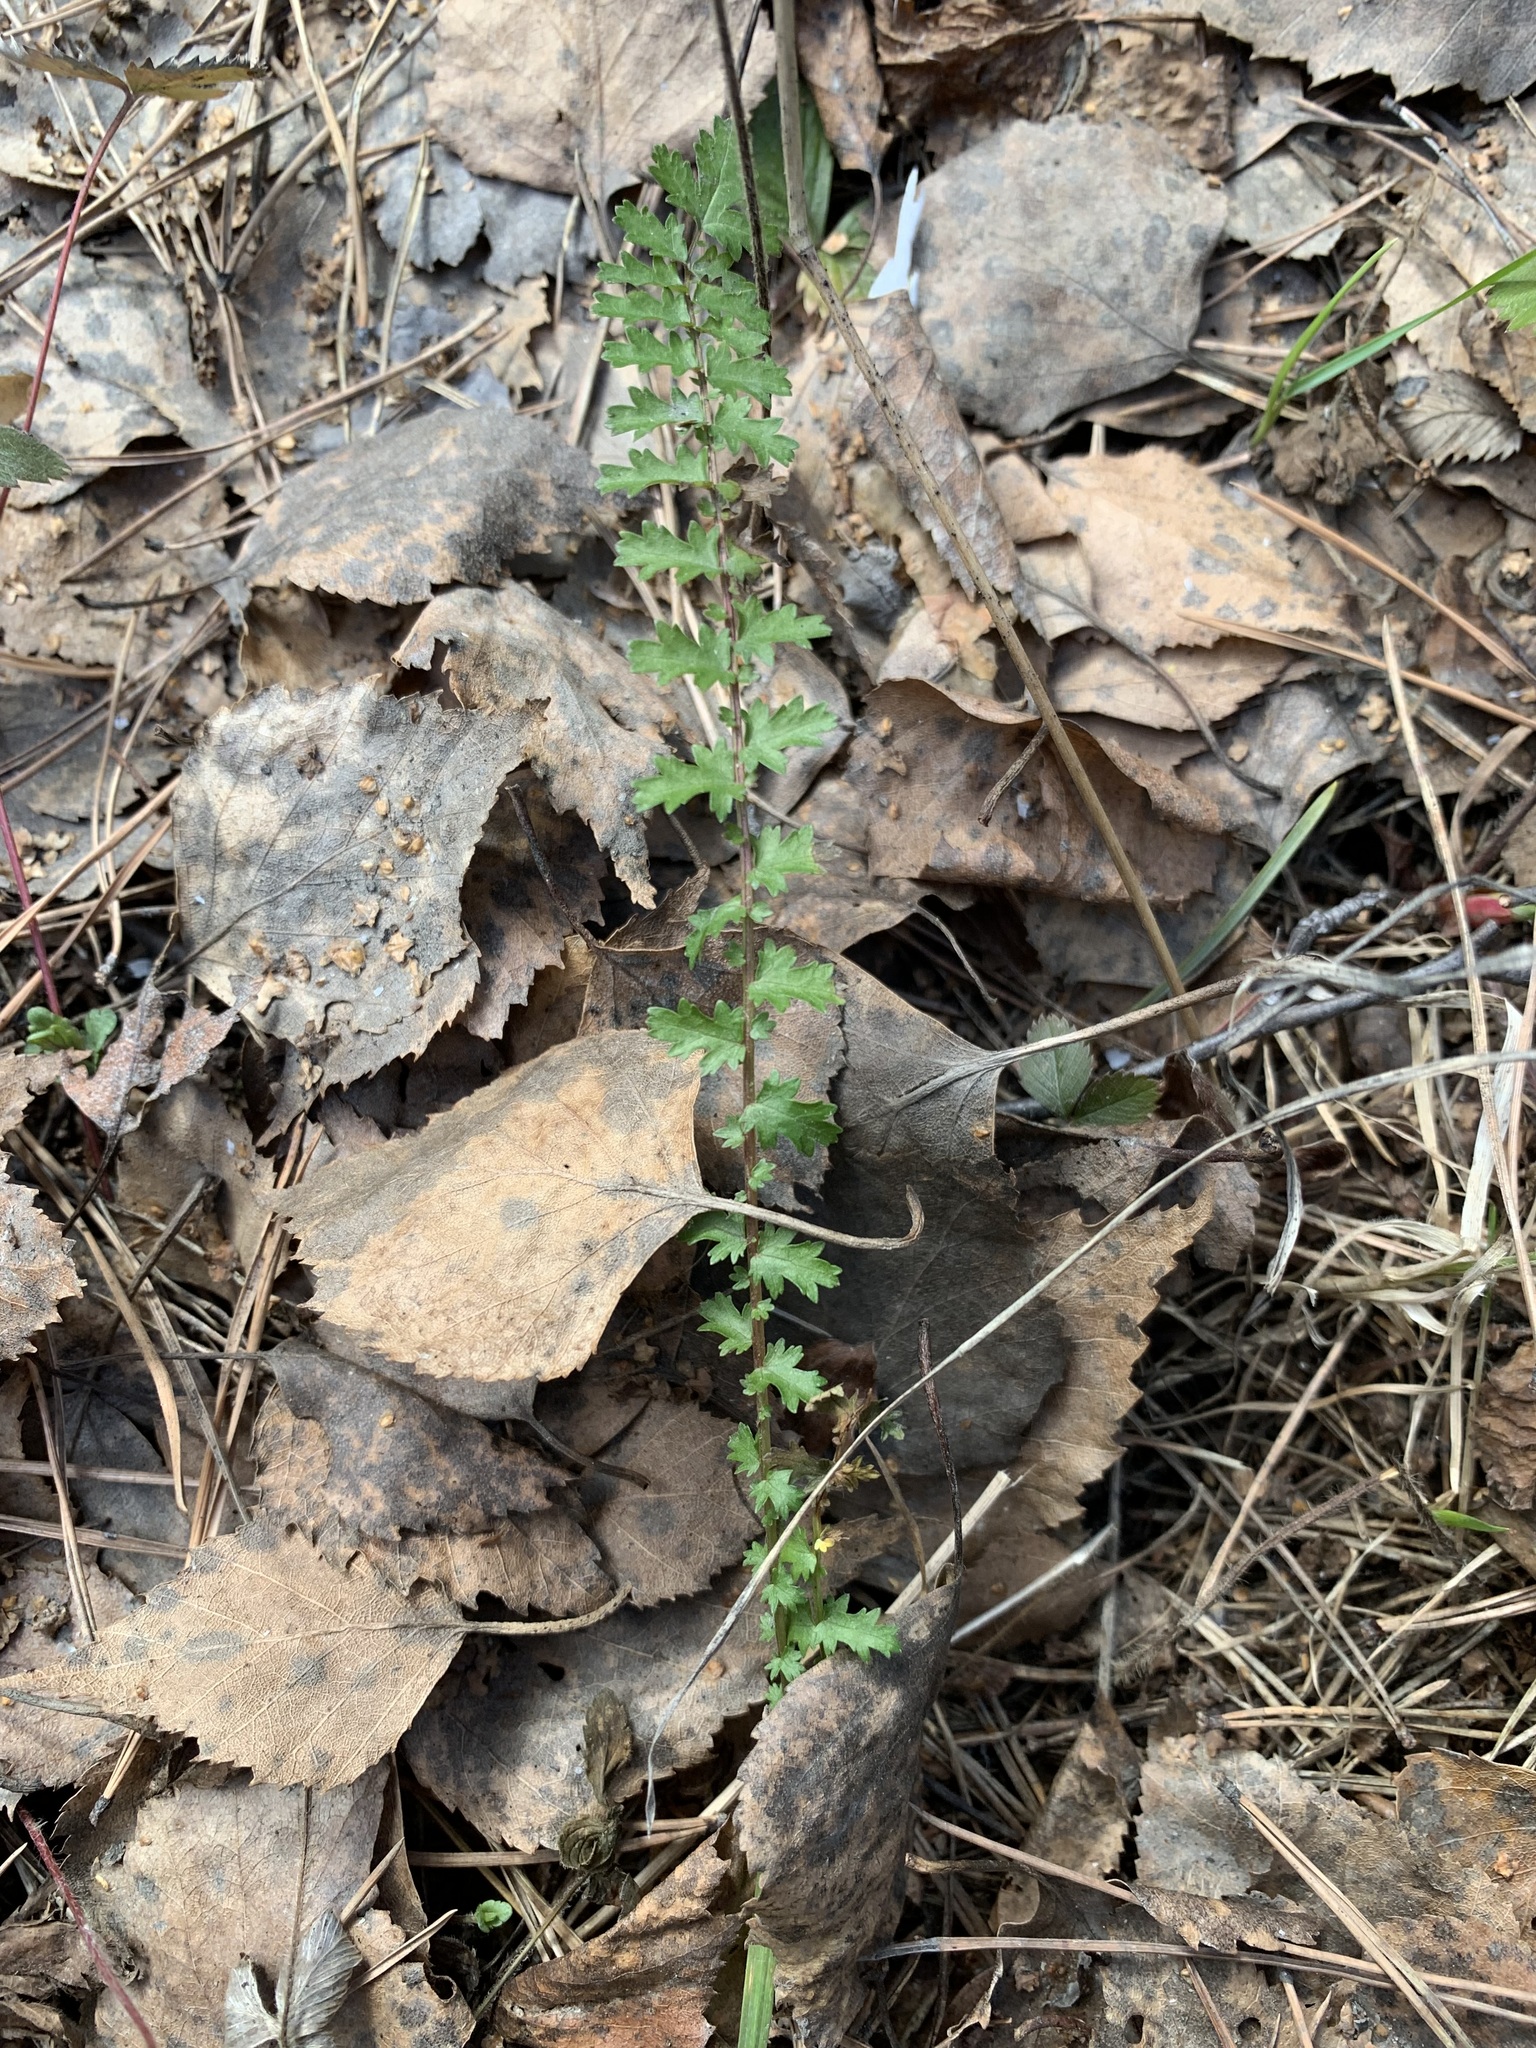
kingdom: Plantae
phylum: Tracheophyta
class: Magnoliopsida
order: Rosales
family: Rosaceae
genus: Filipendula
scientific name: Filipendula vulgaris
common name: Dropwort
